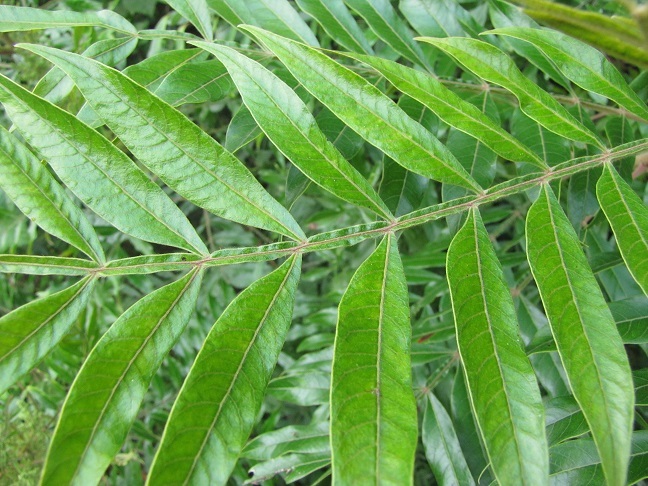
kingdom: Plantae
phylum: Tracheophyta
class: Magnoliopsida
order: Sapindales
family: Anacardiaceae
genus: Rhus
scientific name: Rhus copallina
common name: Shining sumac
